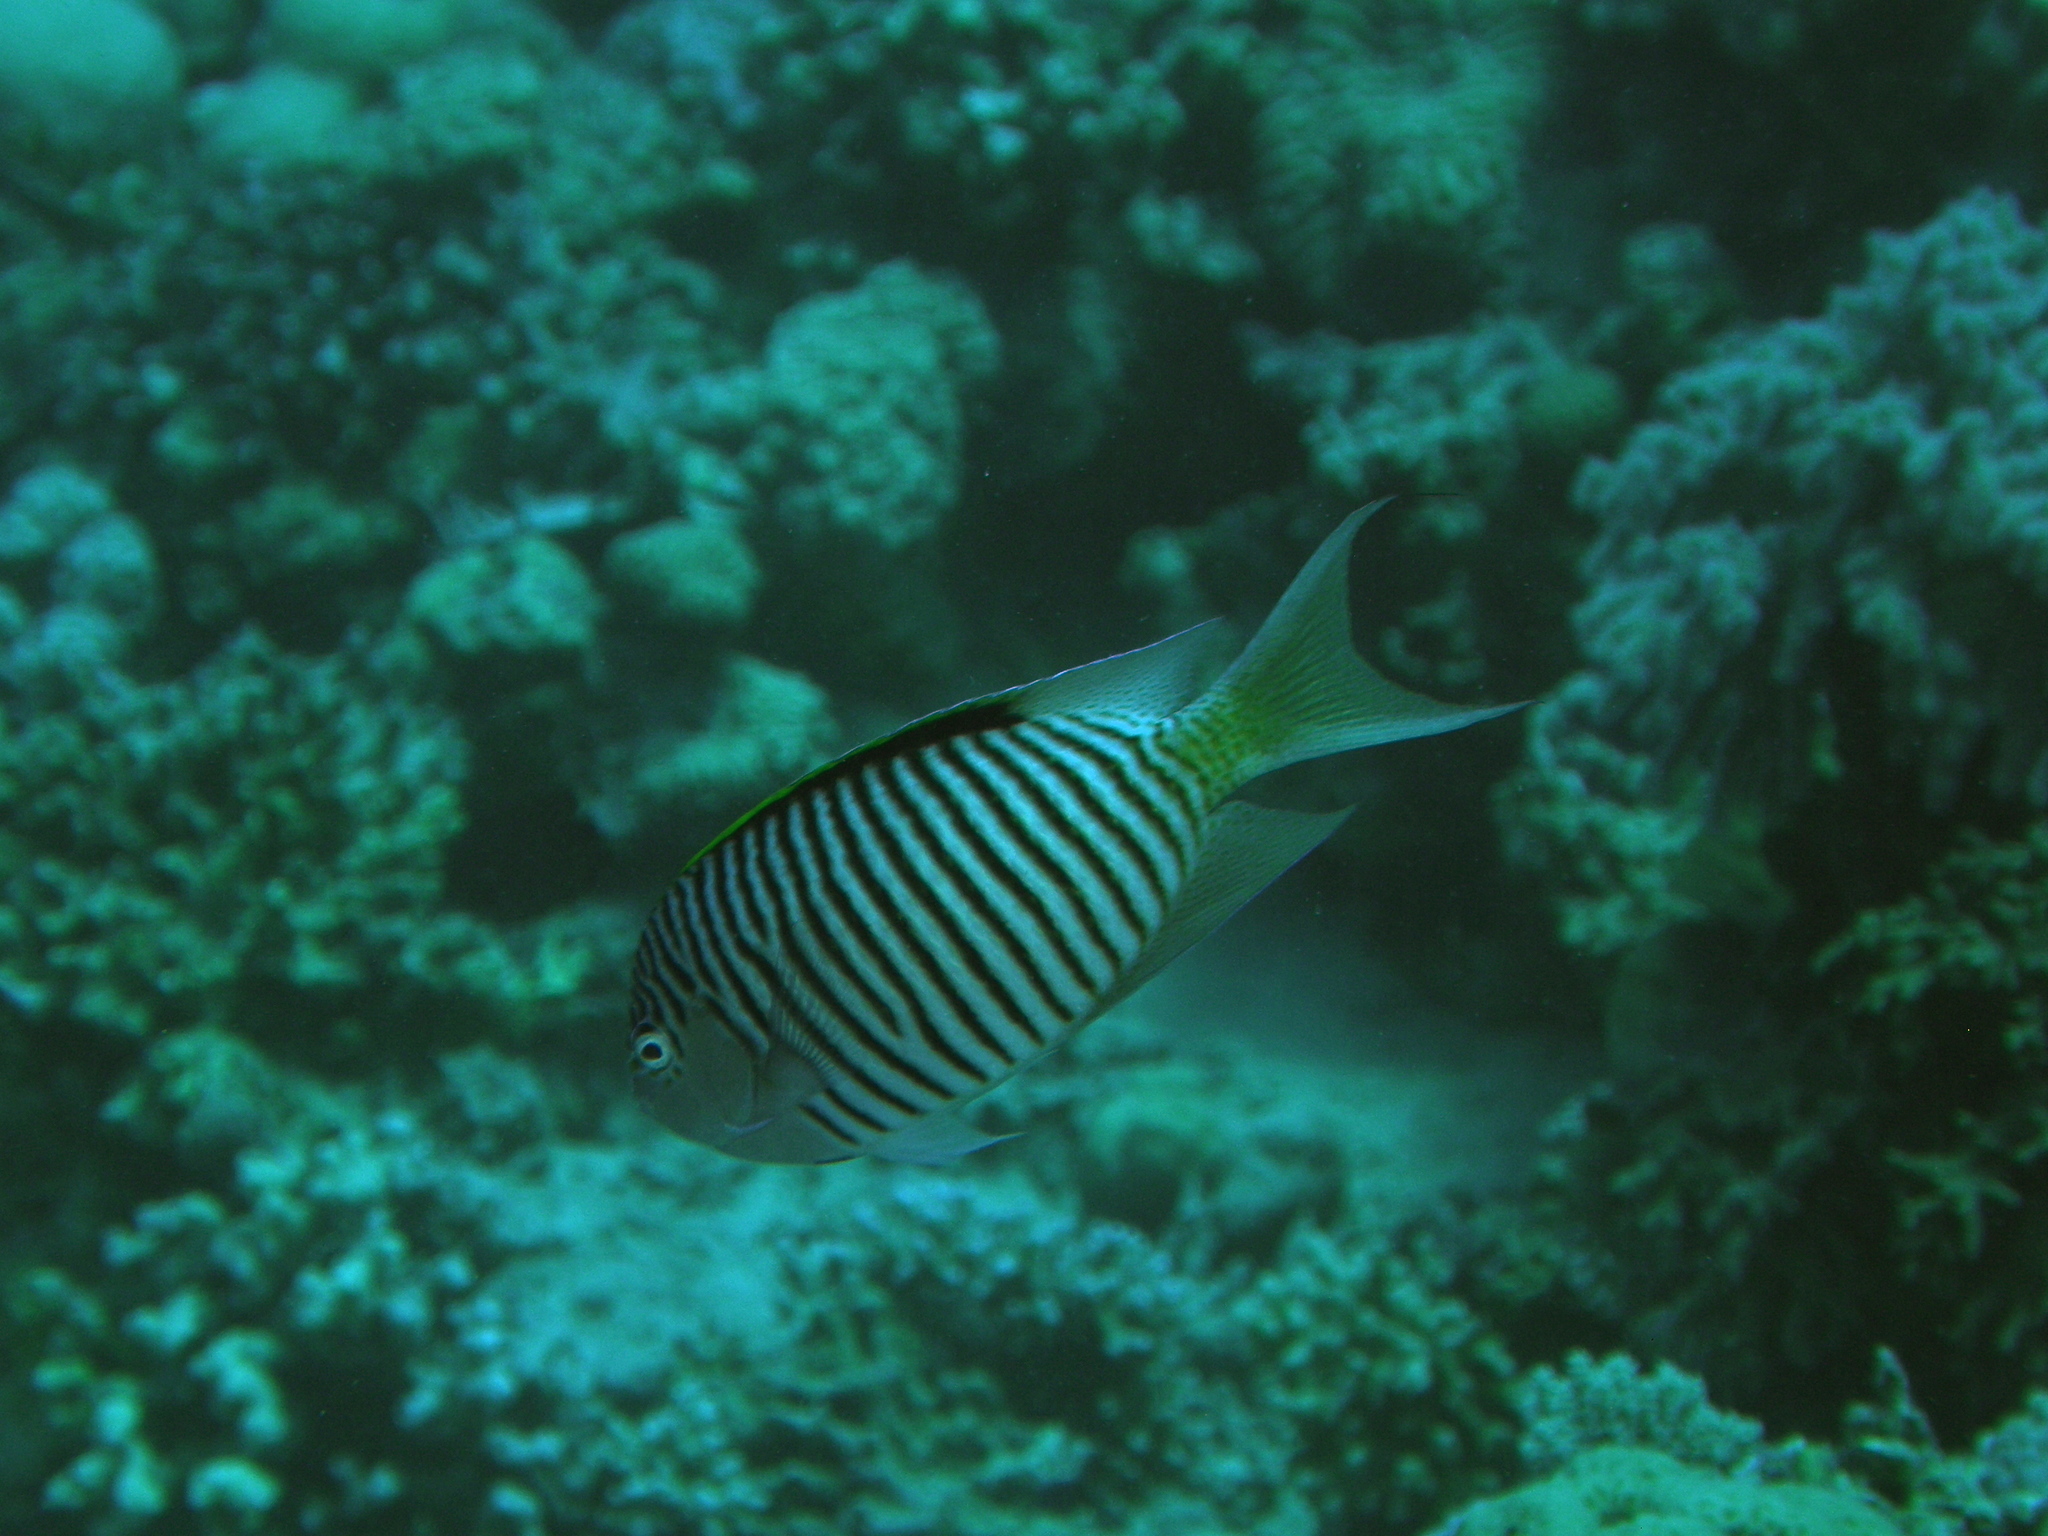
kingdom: Animalia
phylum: Chordata
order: Perciformes
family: Pomacanthidae
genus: Genicanthus
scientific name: Genicanthus caudovittatus
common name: Lyretail angelfish
